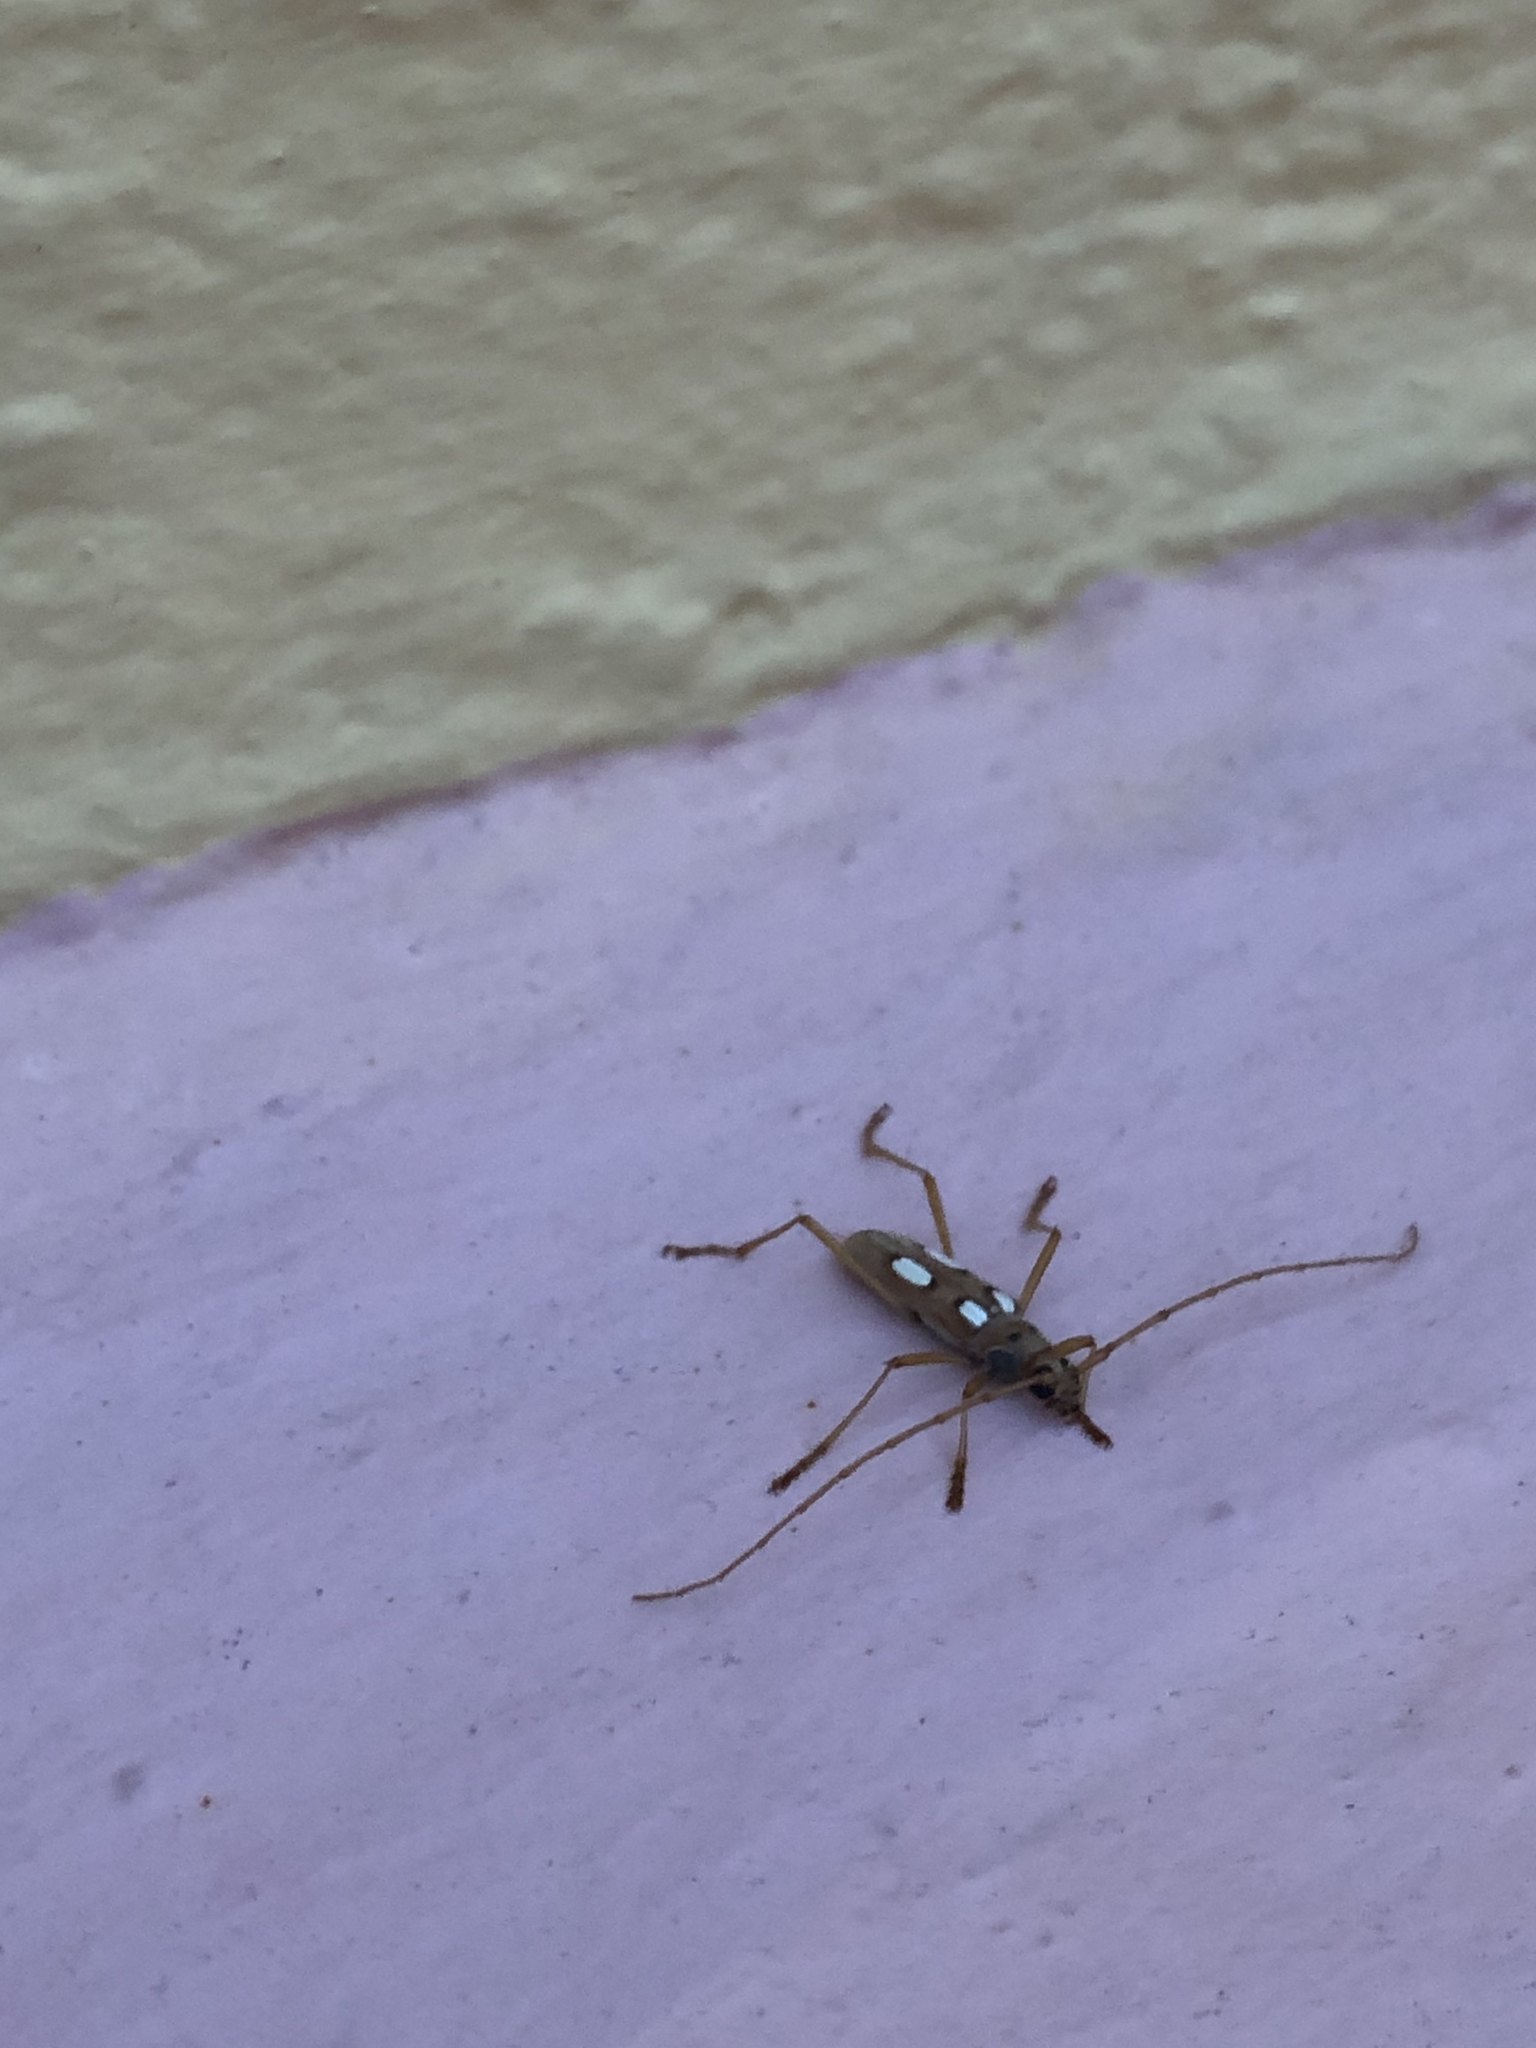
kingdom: Animalia
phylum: Arthropoda
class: Insecta
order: Coleoptera
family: Cerambycidae
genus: Eburia
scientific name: Eburia quadrimaculata
